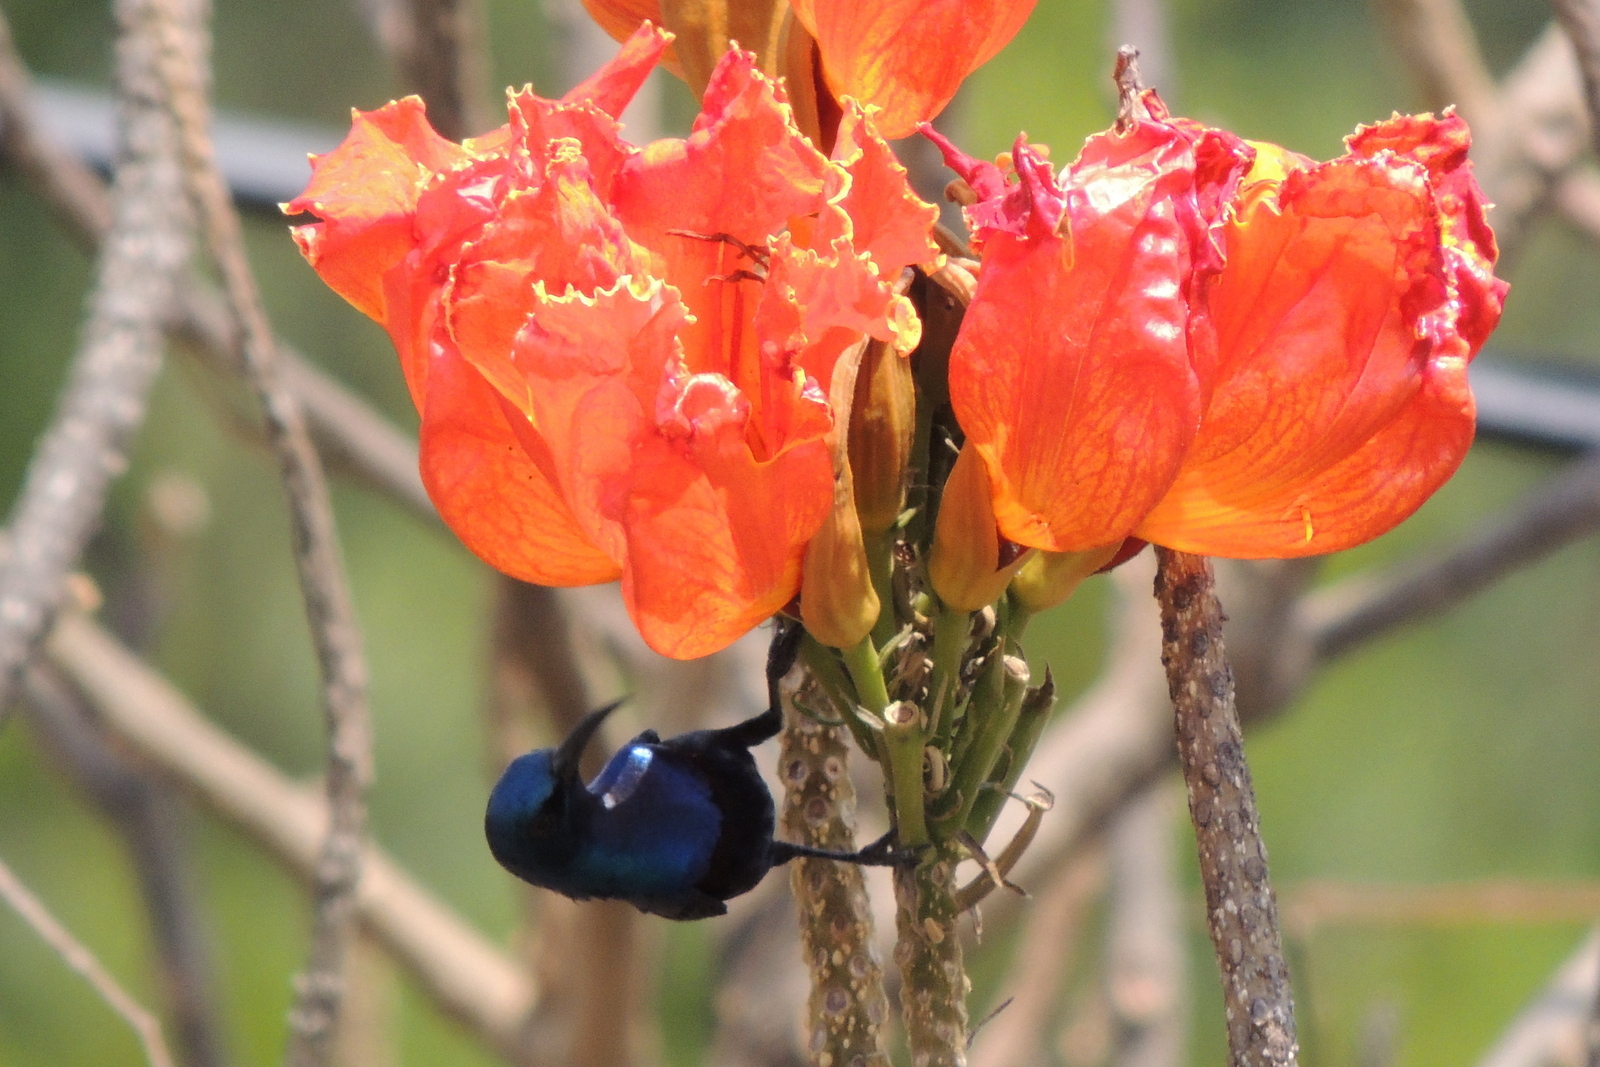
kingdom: Animalia
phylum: Chordata
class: Aves
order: Passeriformes
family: Nectariniidae
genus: Cinnyris
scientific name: Cinnyris asiaticus
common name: Purple sunbird
